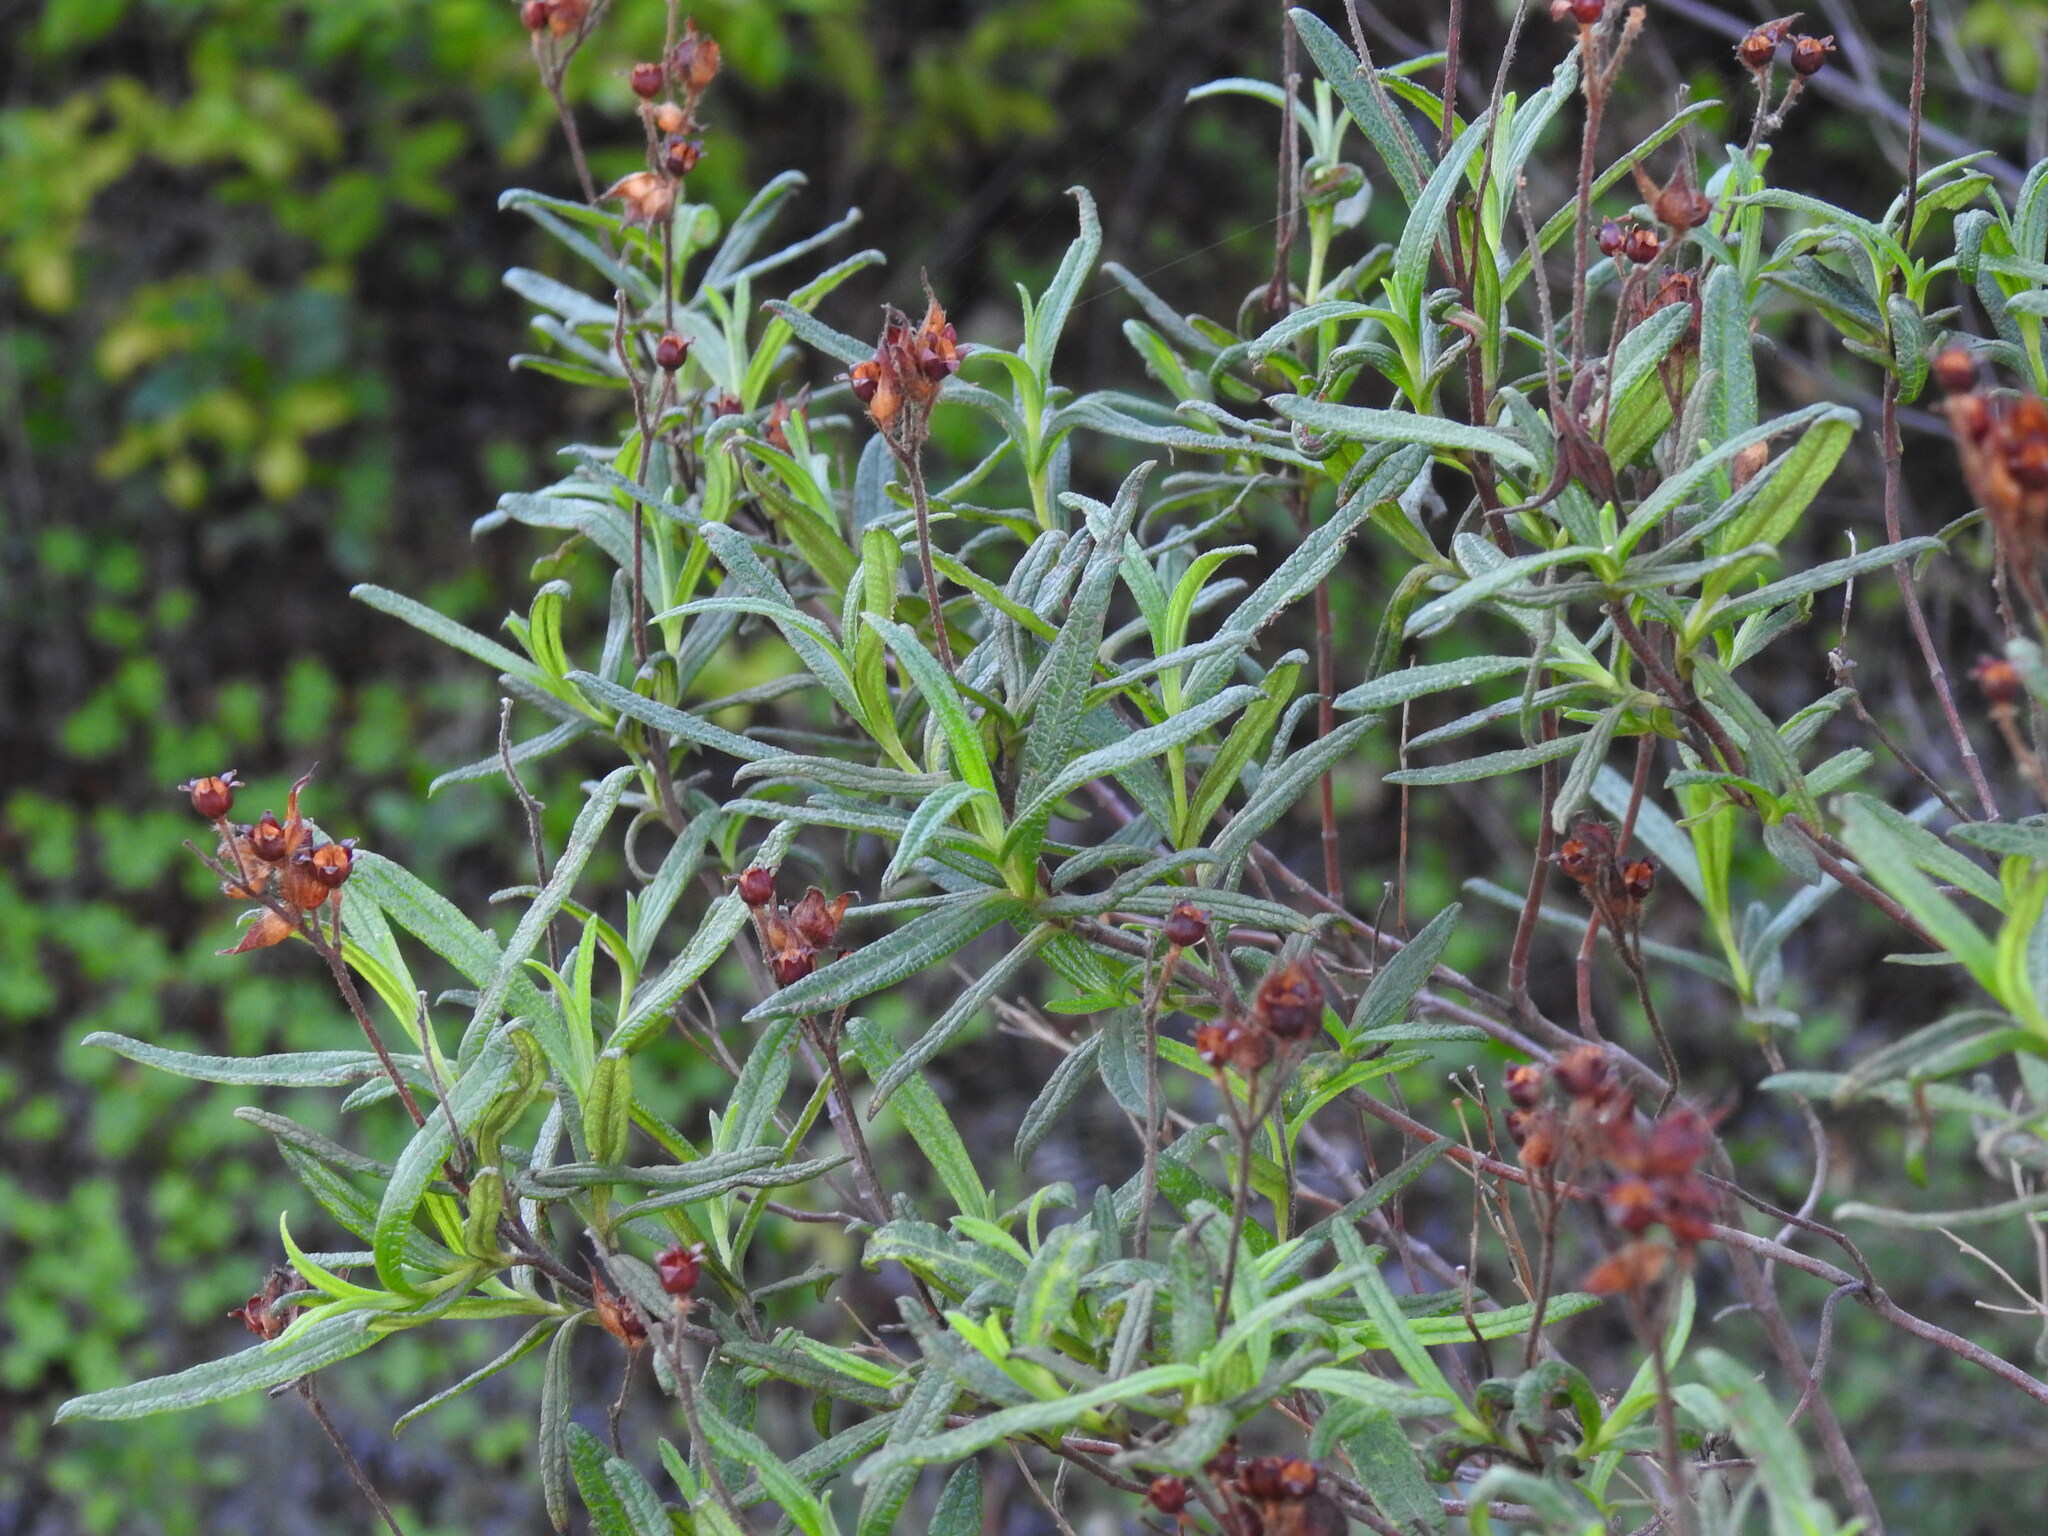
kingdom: Plantae
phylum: Tracheophyta
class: Magnoliopsida
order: Malvales
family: Cistaceae
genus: Cistus
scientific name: Cistus monspeliensis
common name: Montpelier cistus
